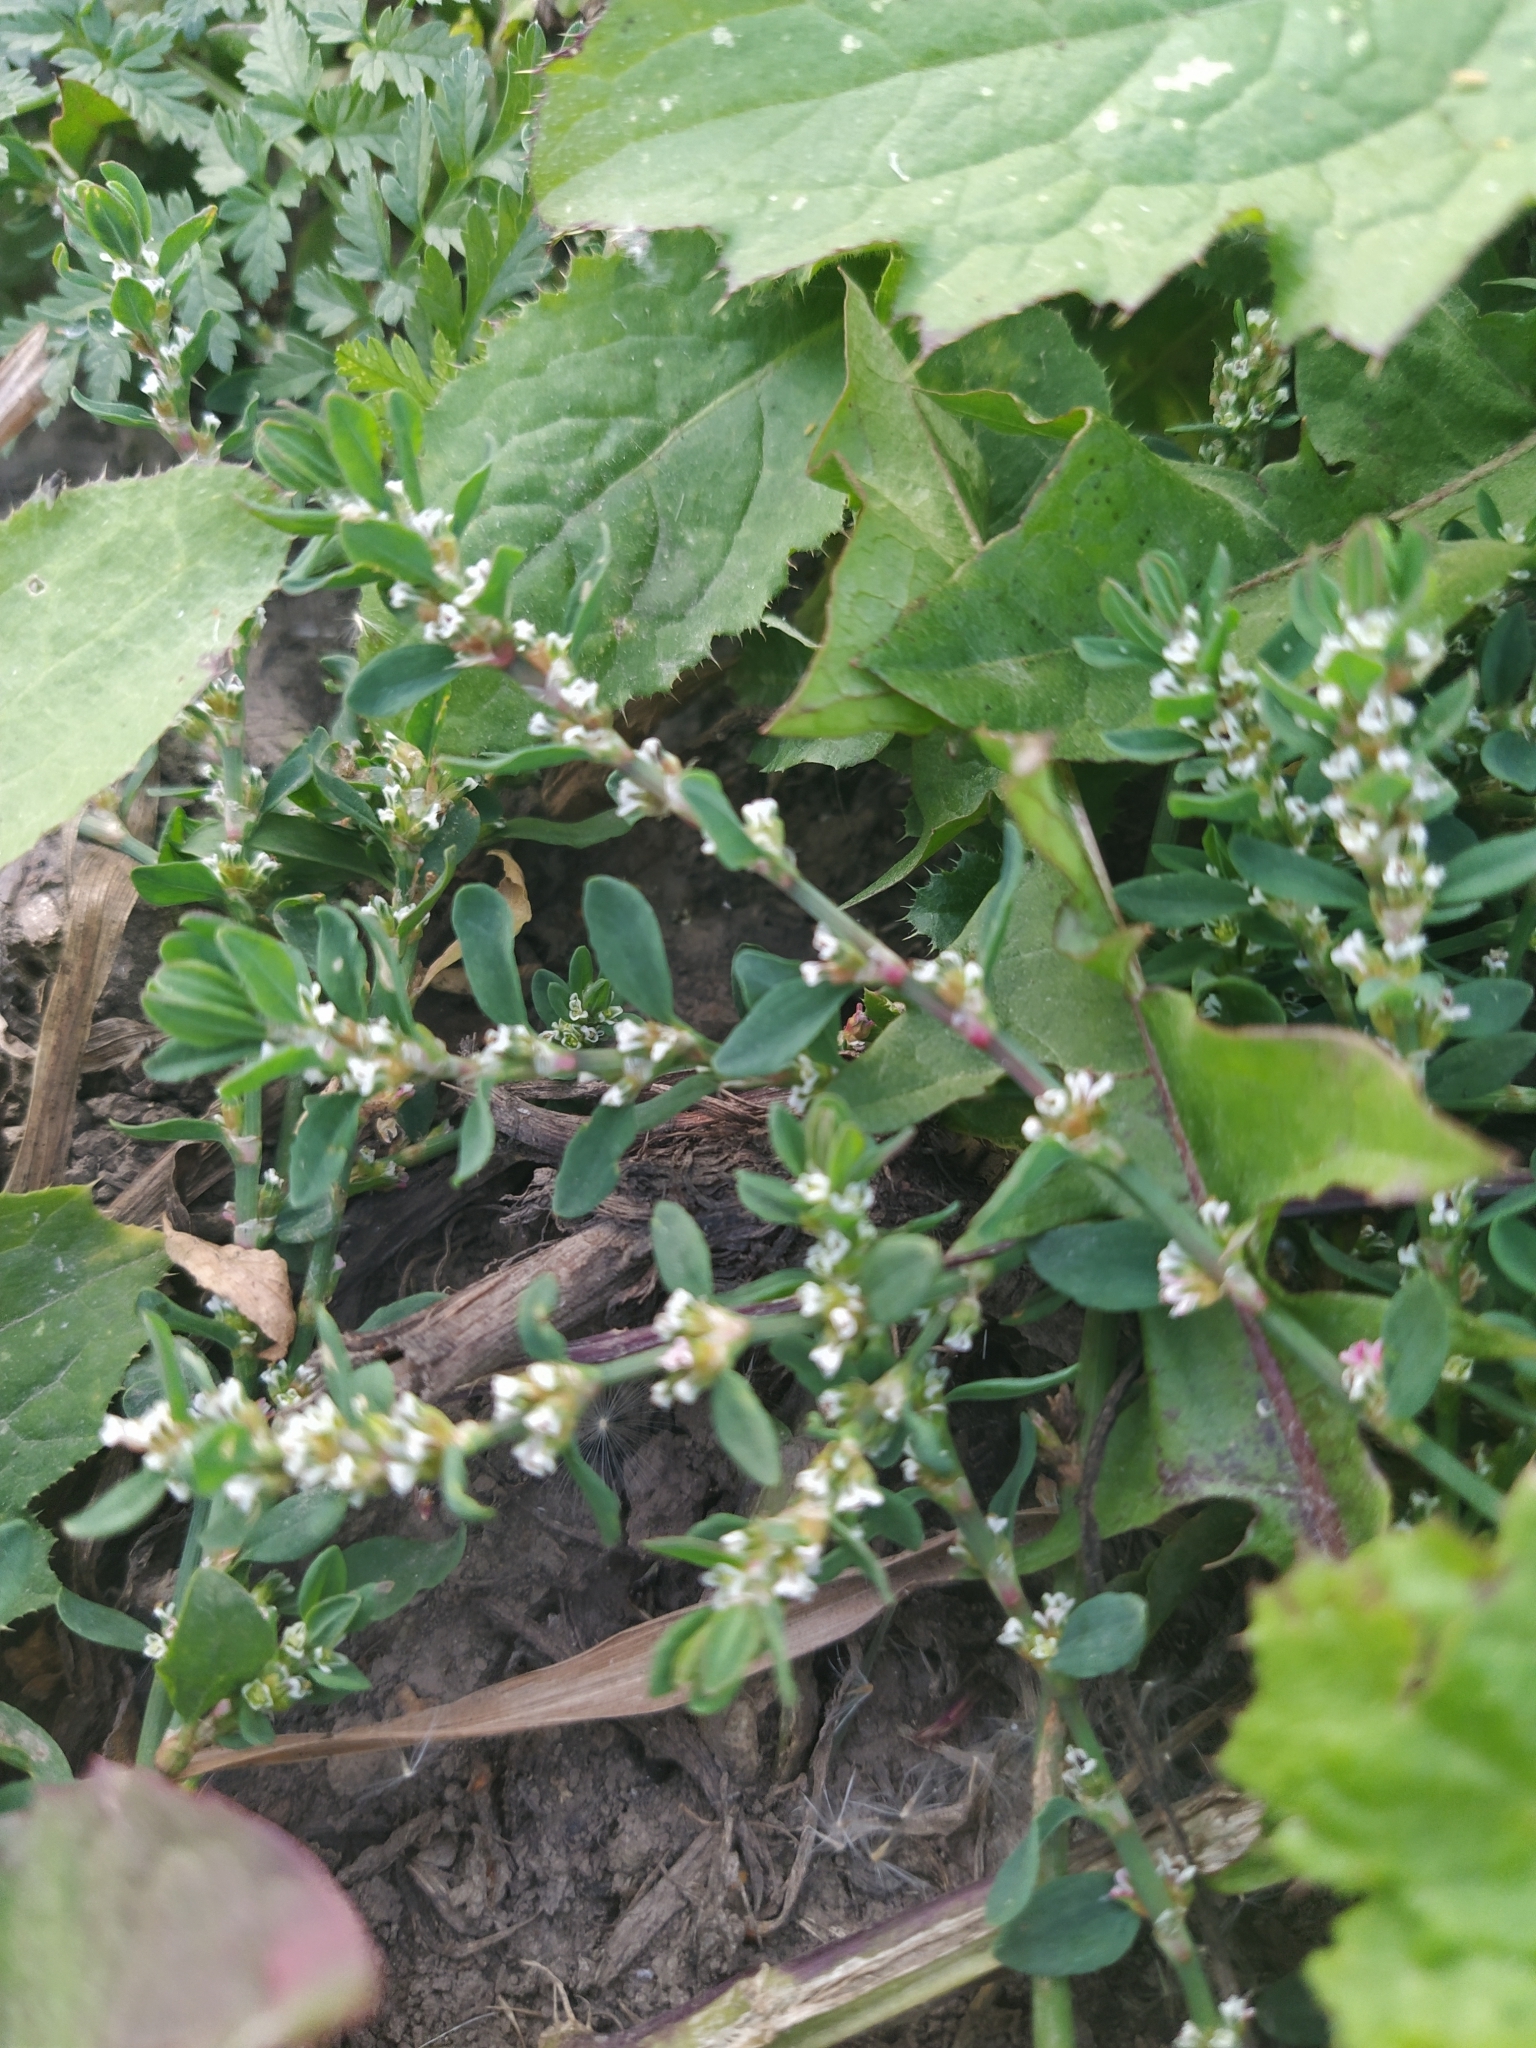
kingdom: Plantae
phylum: Tracheophyta
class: Magnoliopsida
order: Caryophyllales
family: Polygonaceae
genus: Polygonum
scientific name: Polygonum
